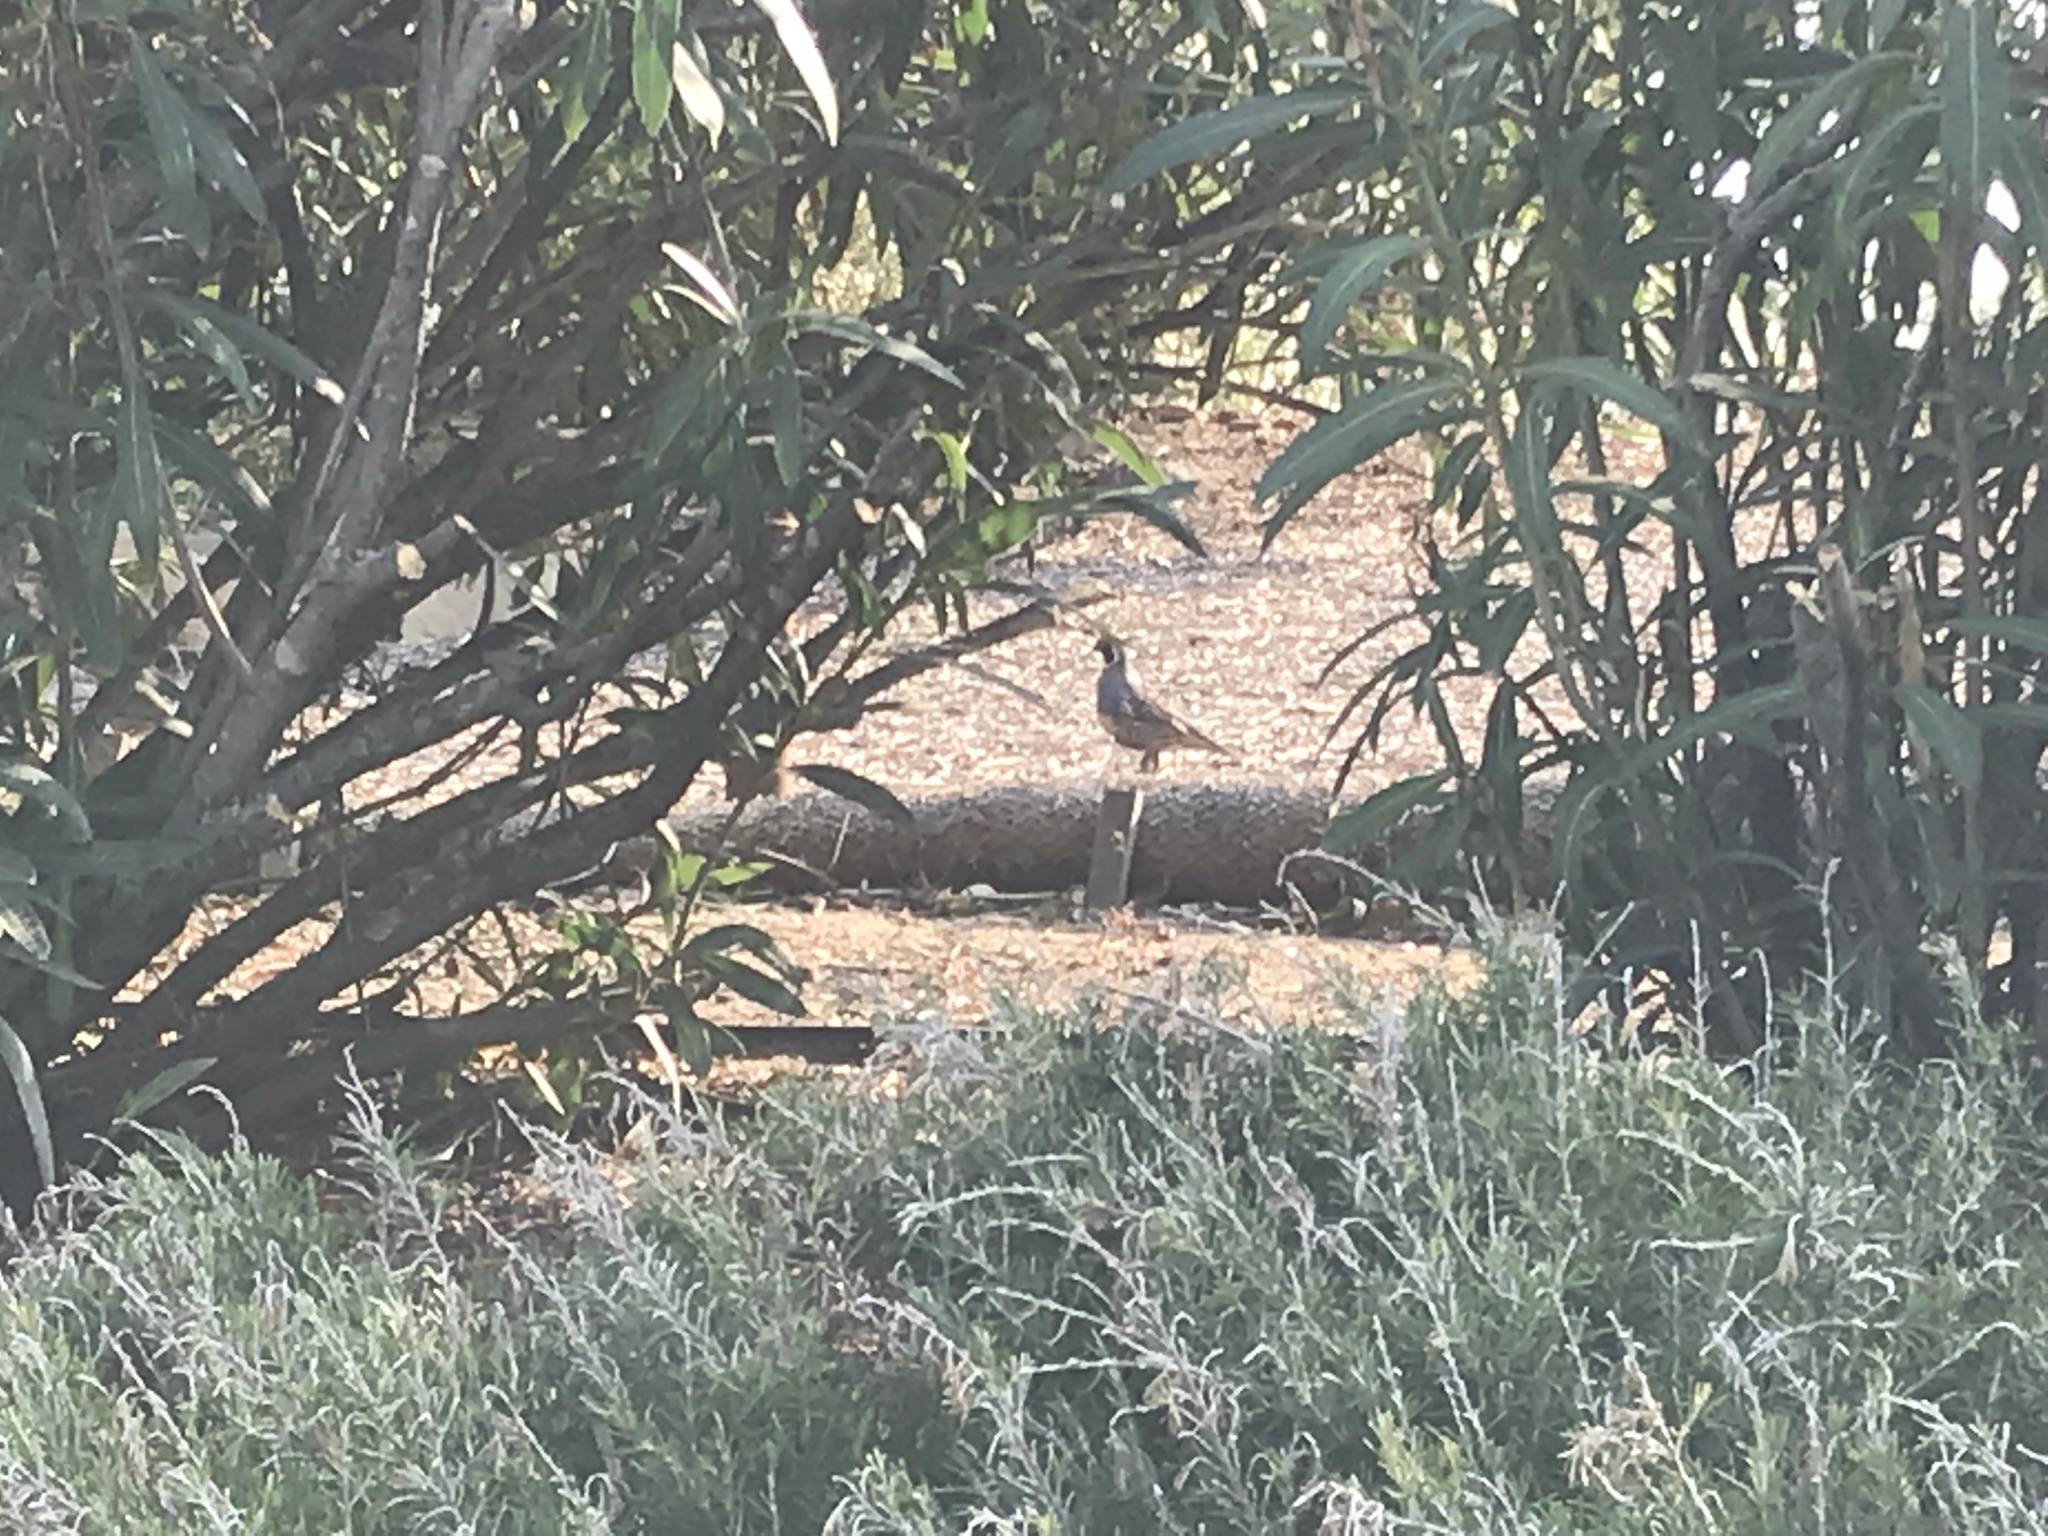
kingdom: Animalia
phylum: Chordata
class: Aves
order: Galliformes
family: Odontophoridae
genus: Callipepla
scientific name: Callipepla californica
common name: California quail
